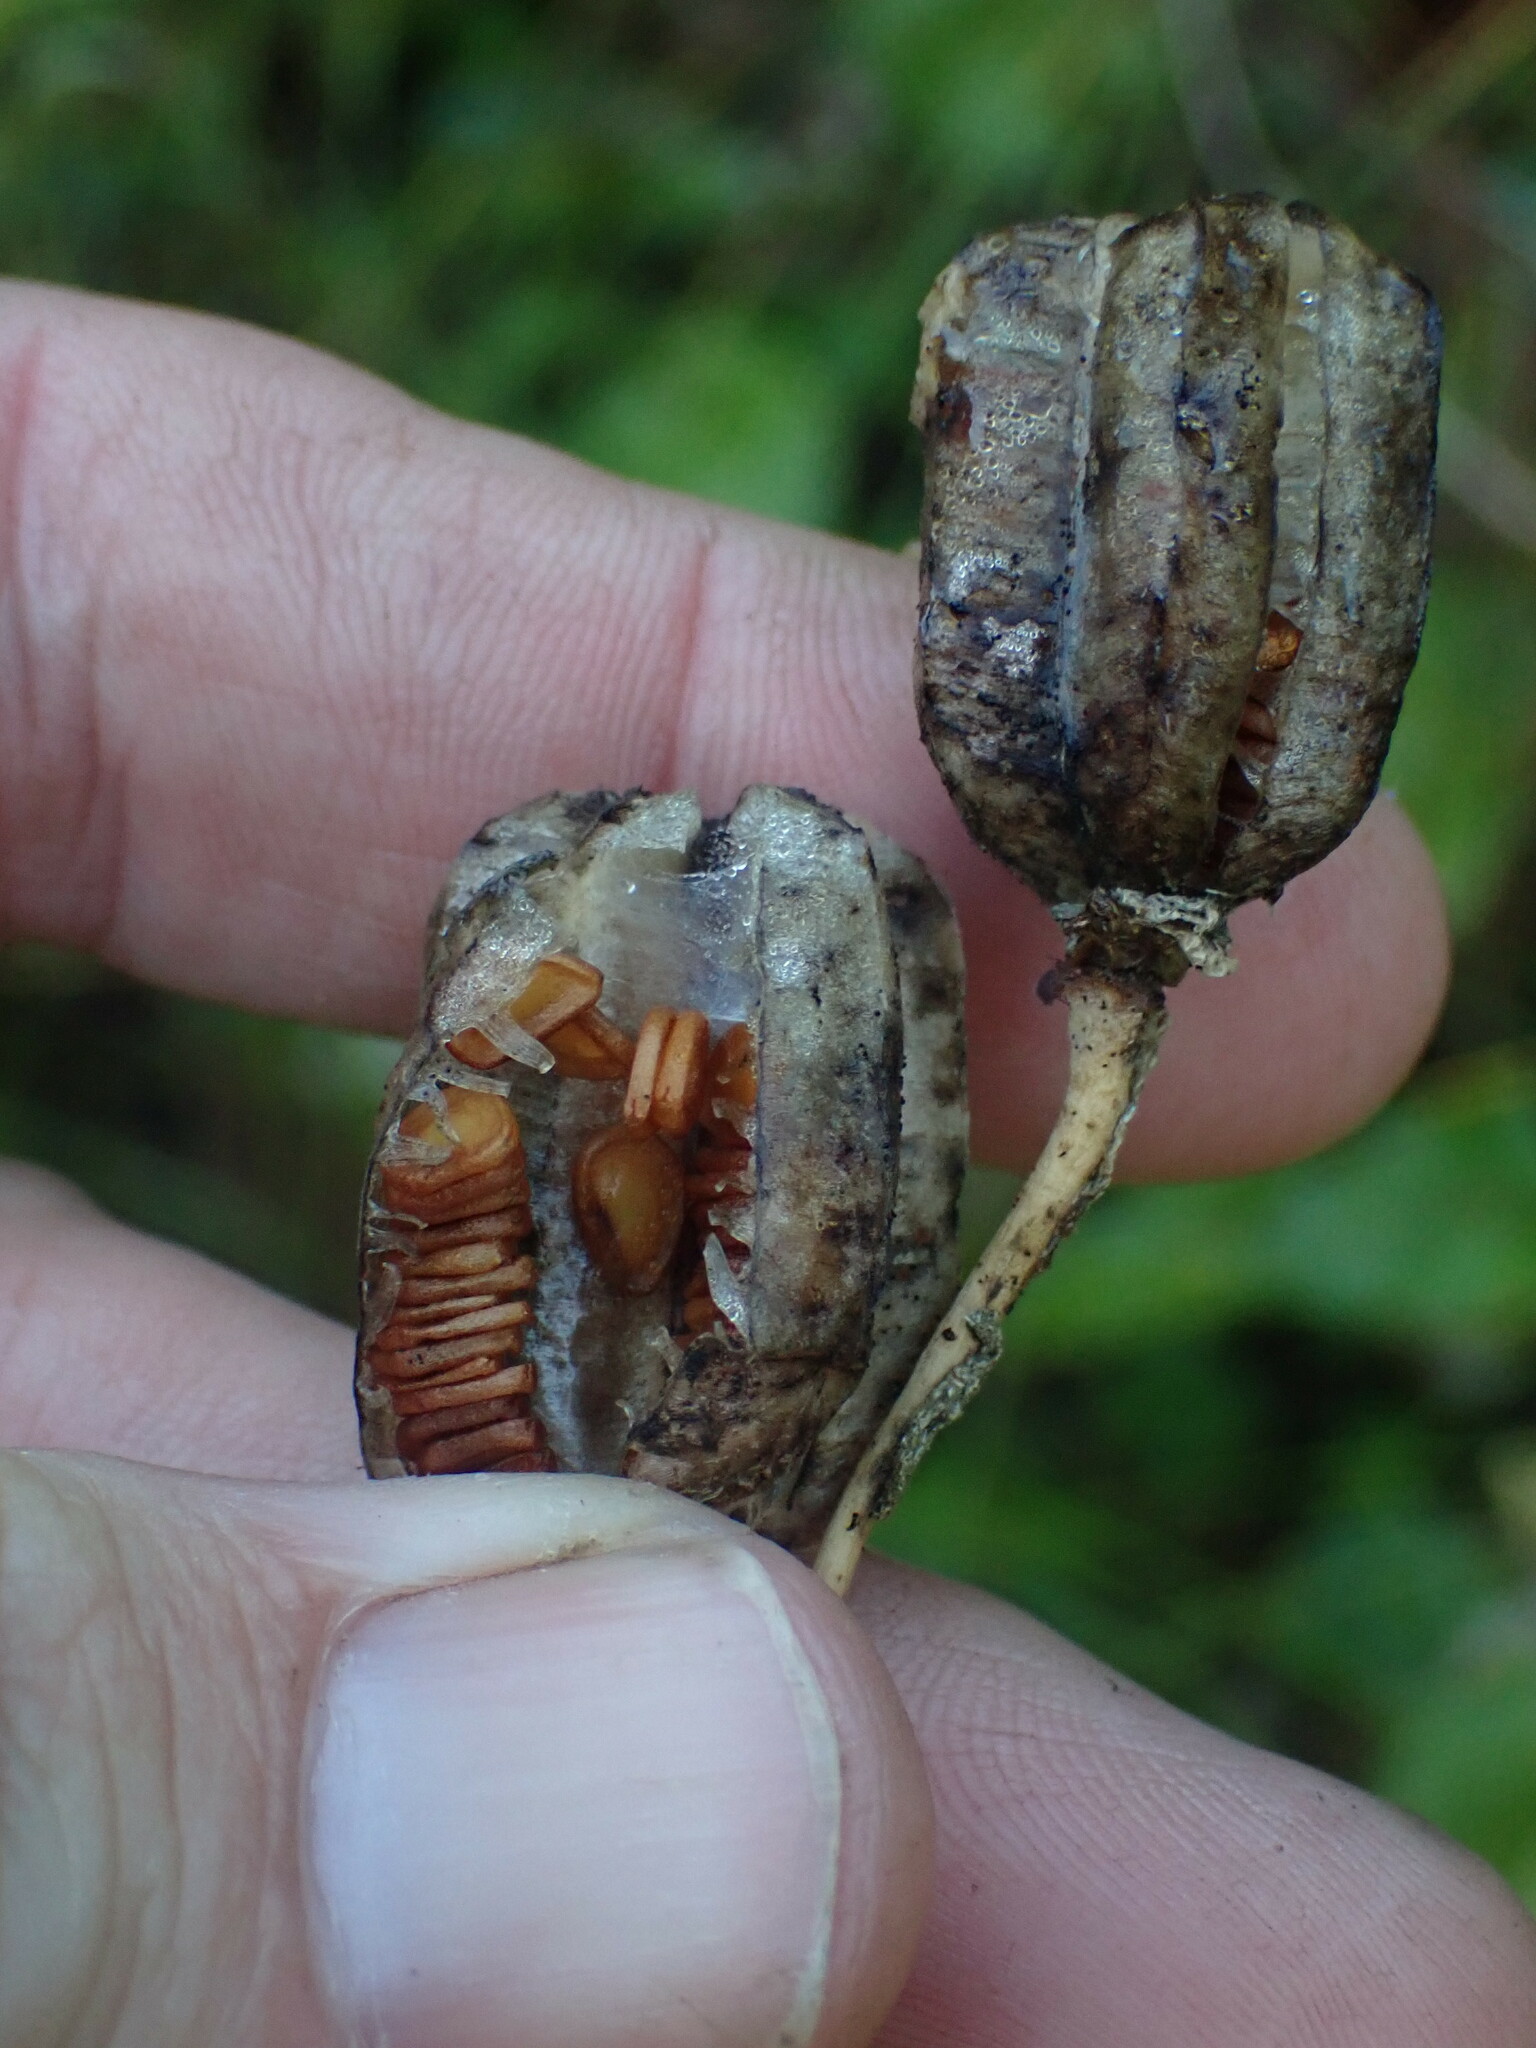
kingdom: Plantae
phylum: Tracheophyta
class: Liliopsida
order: Liliales
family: Liliaceae
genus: Fritillaria
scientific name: Fritillaria camschatcensis
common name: Kamchatka fritillary
